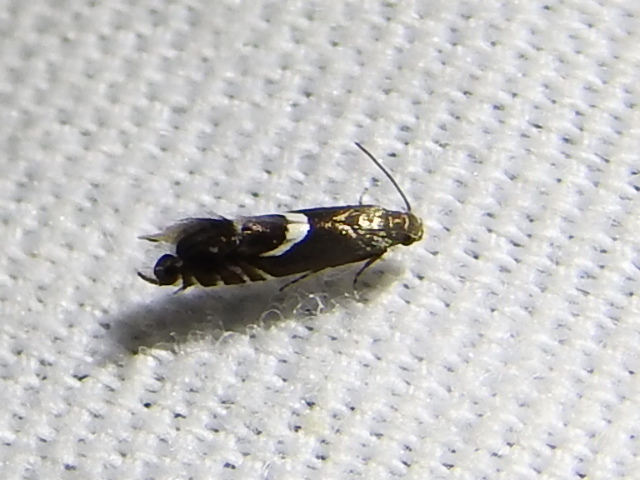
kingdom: Animalia
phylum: Arthropoda
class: Insecta
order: Lepidoptera
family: Glyphipterigidae
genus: Glyphipterix
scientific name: Glyphipterix Diploschizia impigritella
